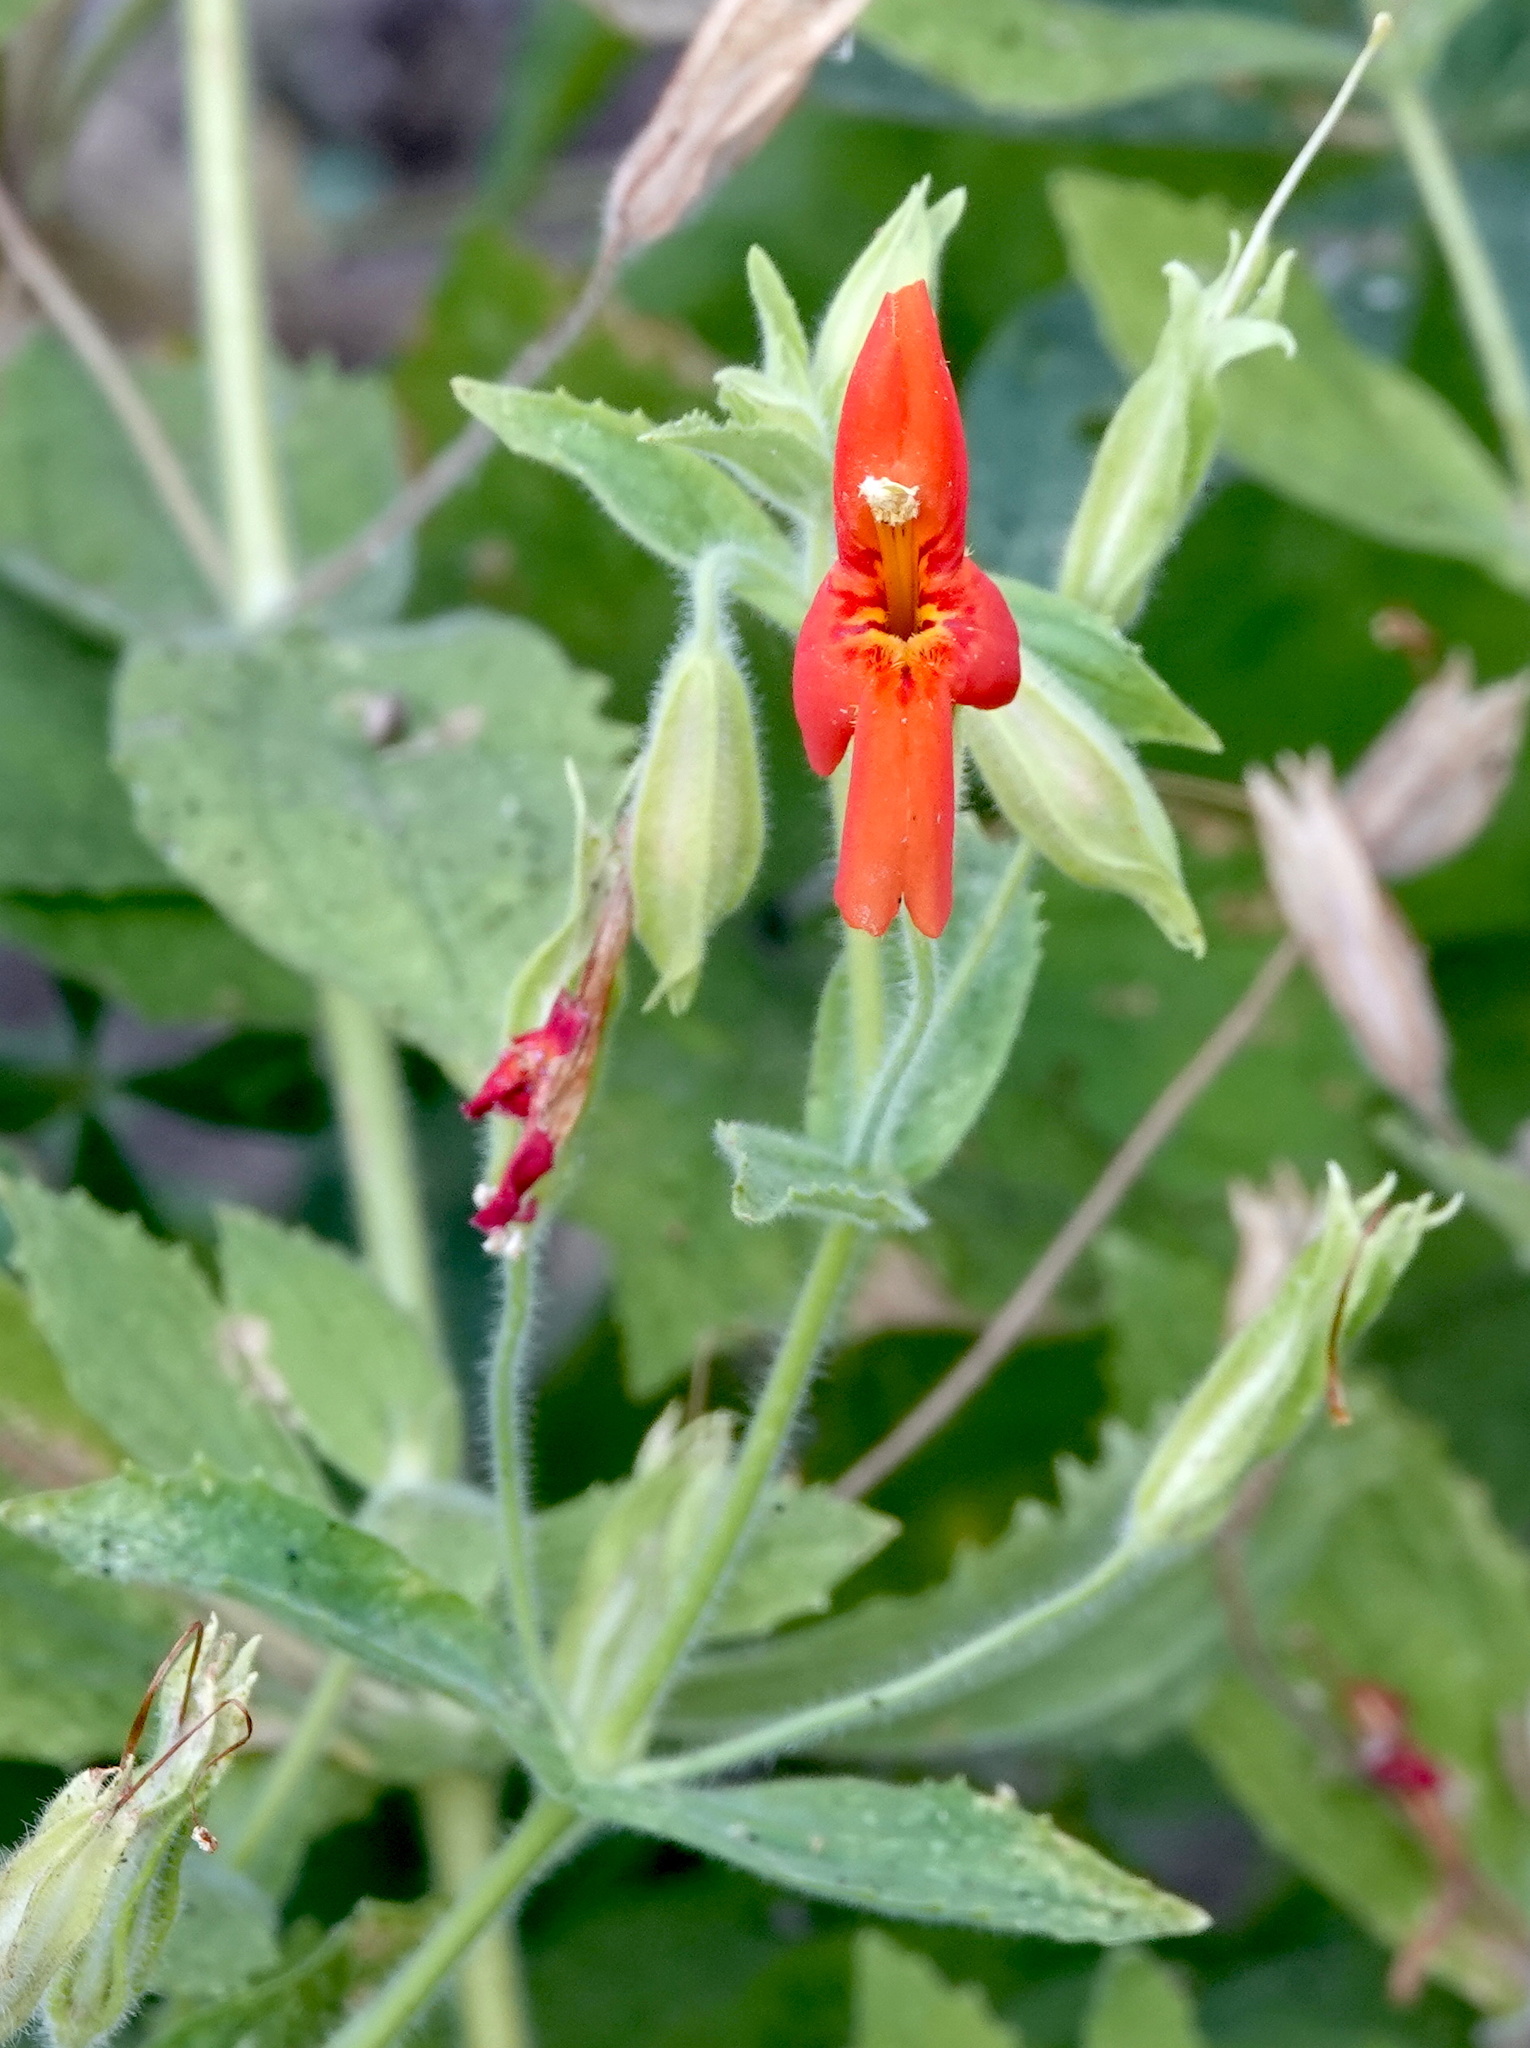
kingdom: Plantae
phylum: Tracheophyta
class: Magnoliopsida
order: Lamiales
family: Phrymaceae
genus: Erythranthe
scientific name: Erythranthe cardinalis
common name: Scarlet monkey-flower
